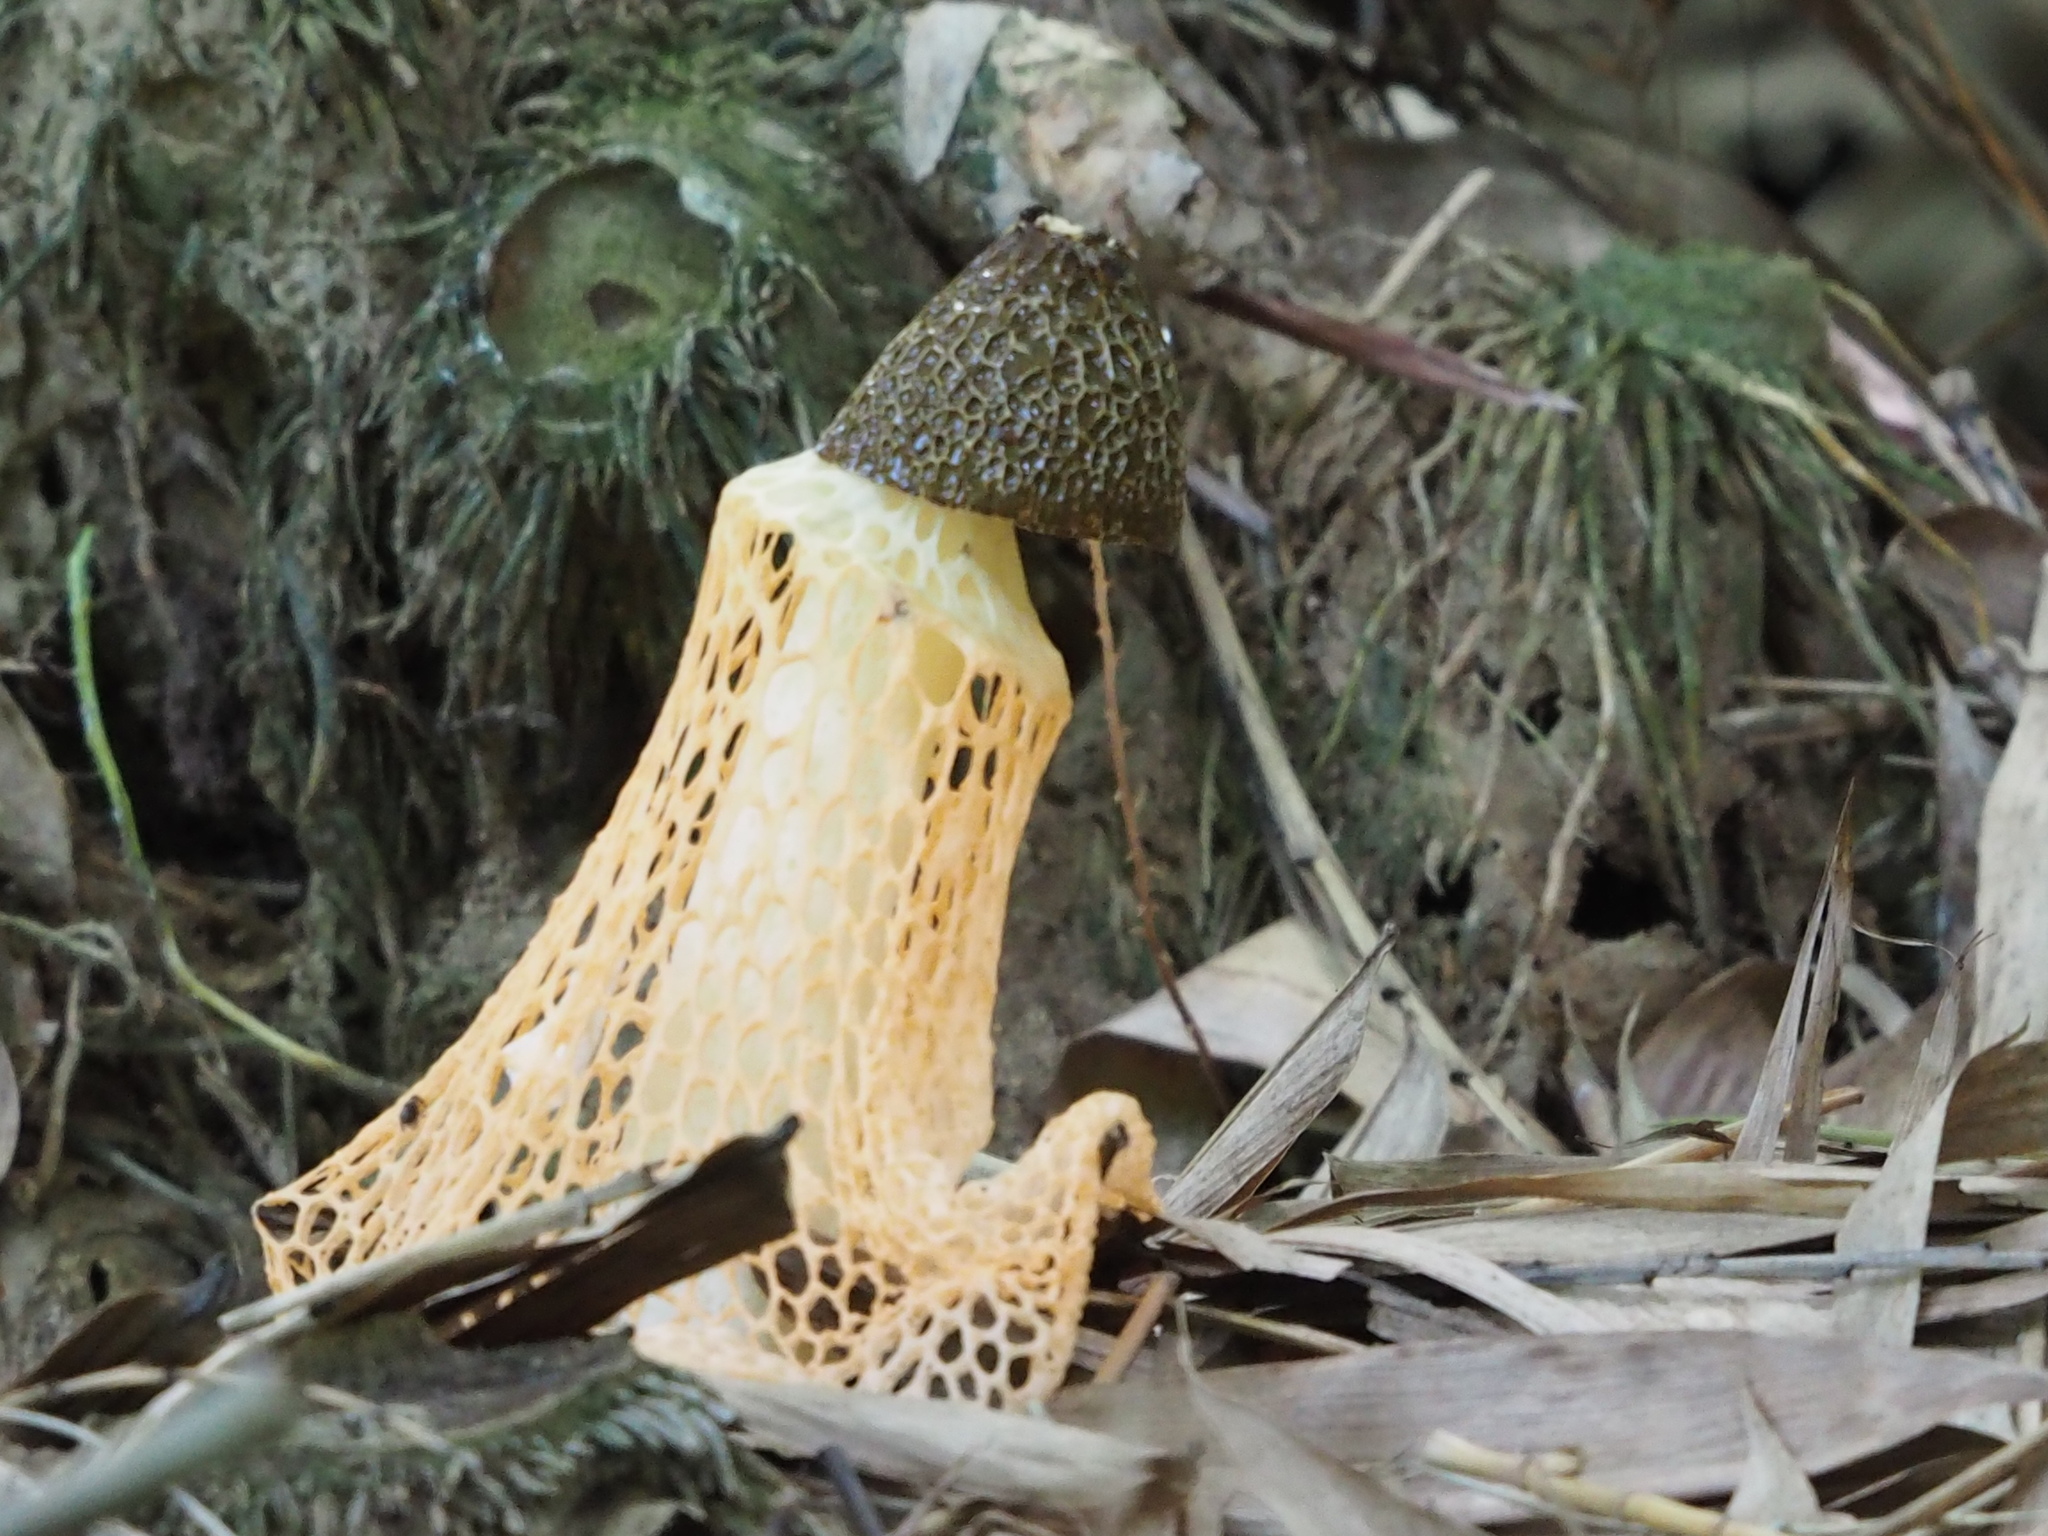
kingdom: Fungi
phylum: Basidiomycota
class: Agaricomycetes
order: Phallales
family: Phallaceae
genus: Phallus
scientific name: Phallus lutescens
